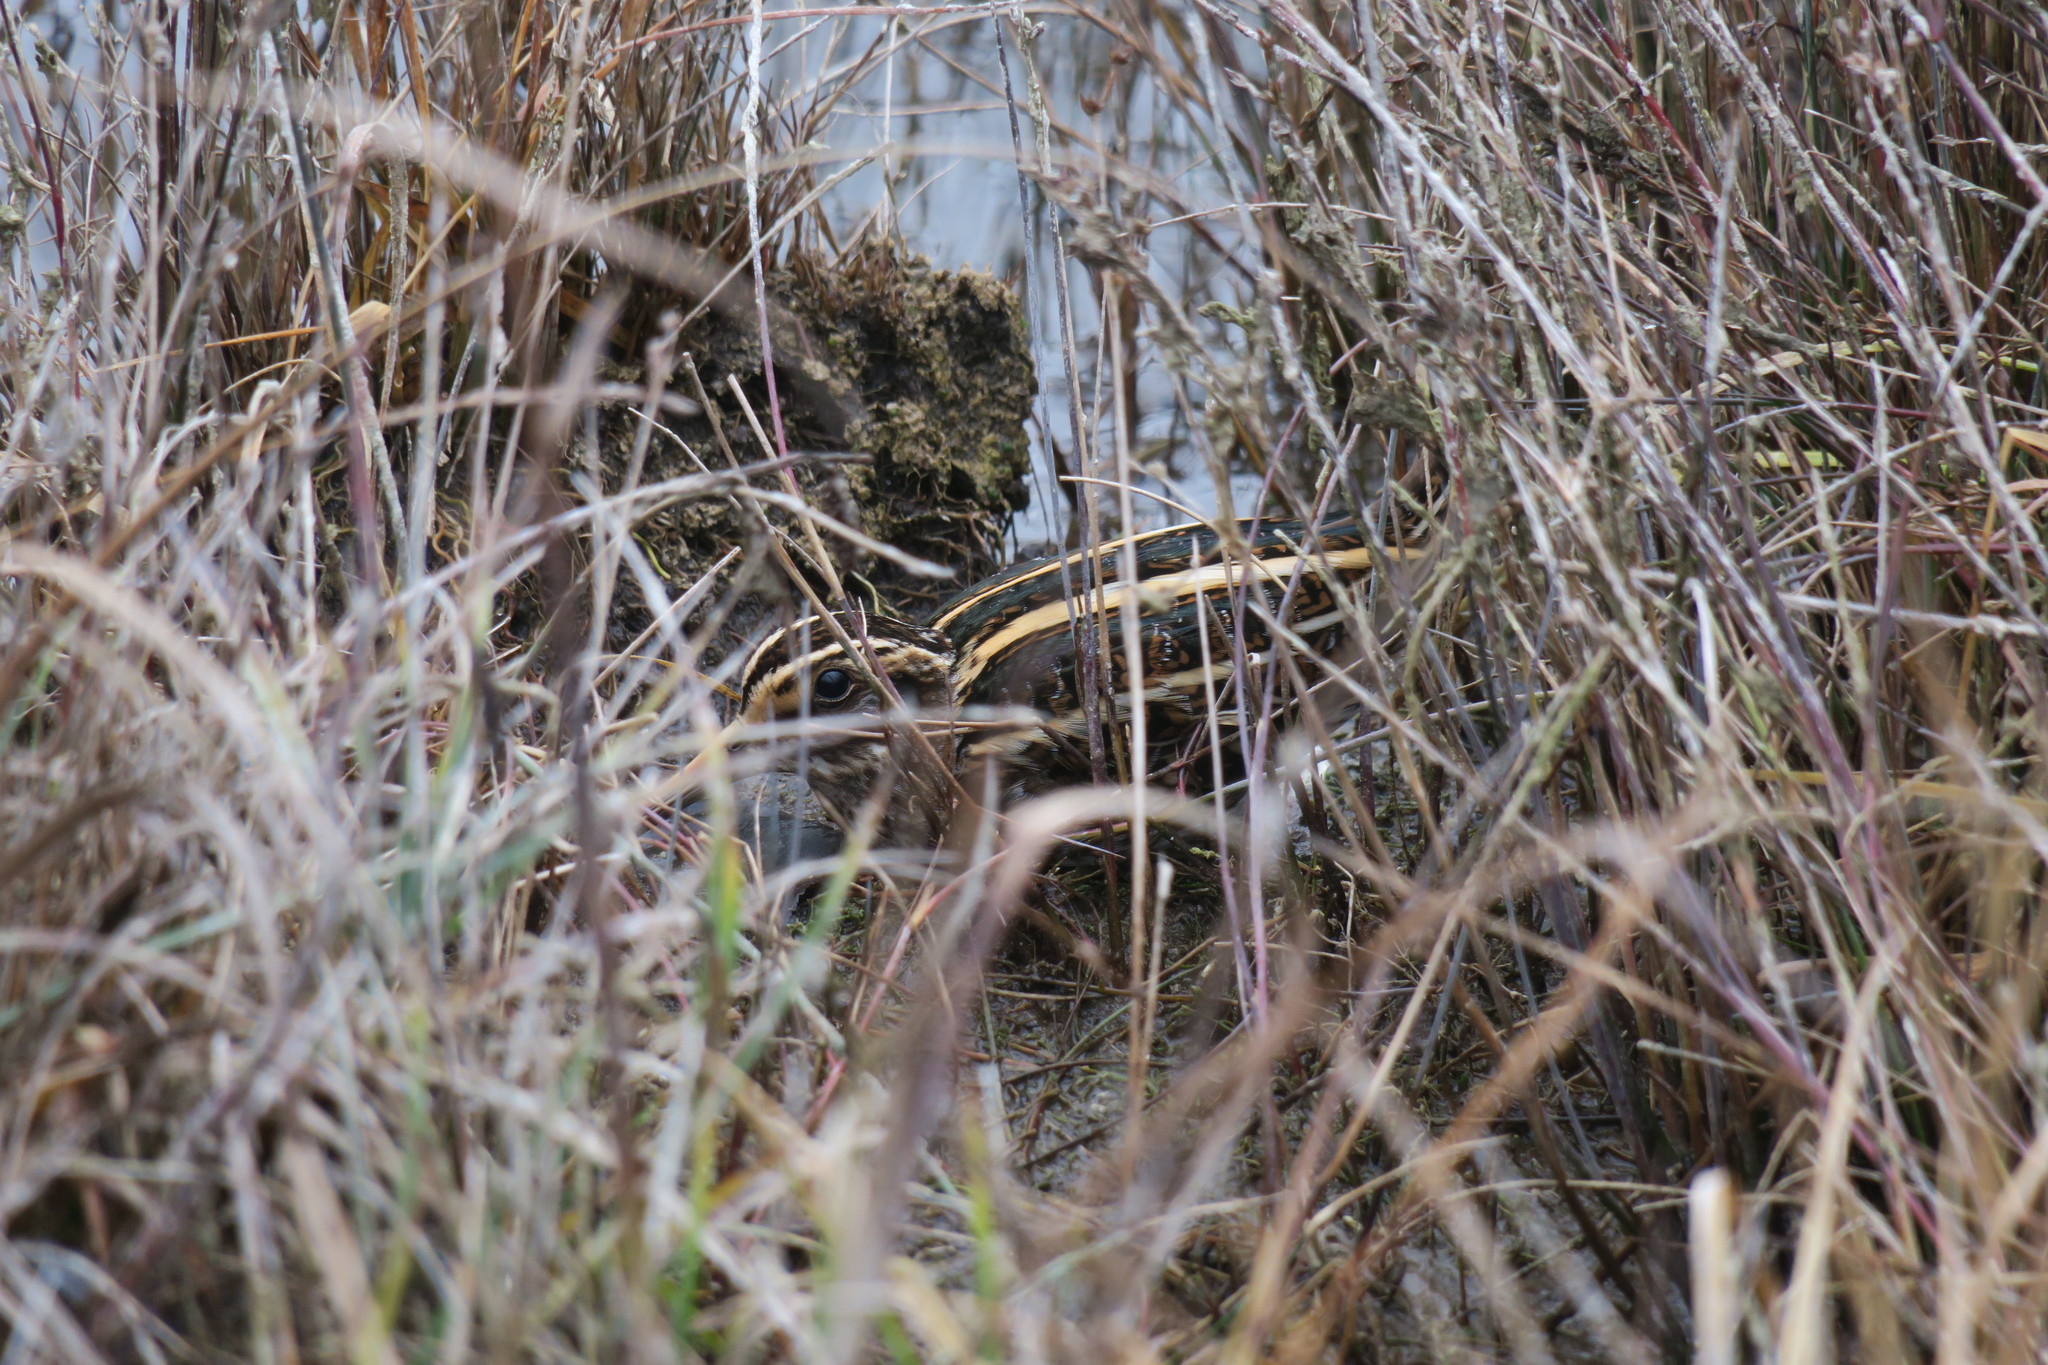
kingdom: Animalia
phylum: Chordata
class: Aves
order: Charadriiformes
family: Scolopacidae
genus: Lymnocryptes
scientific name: Lymnocryptes minimus
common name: Jack snipe
